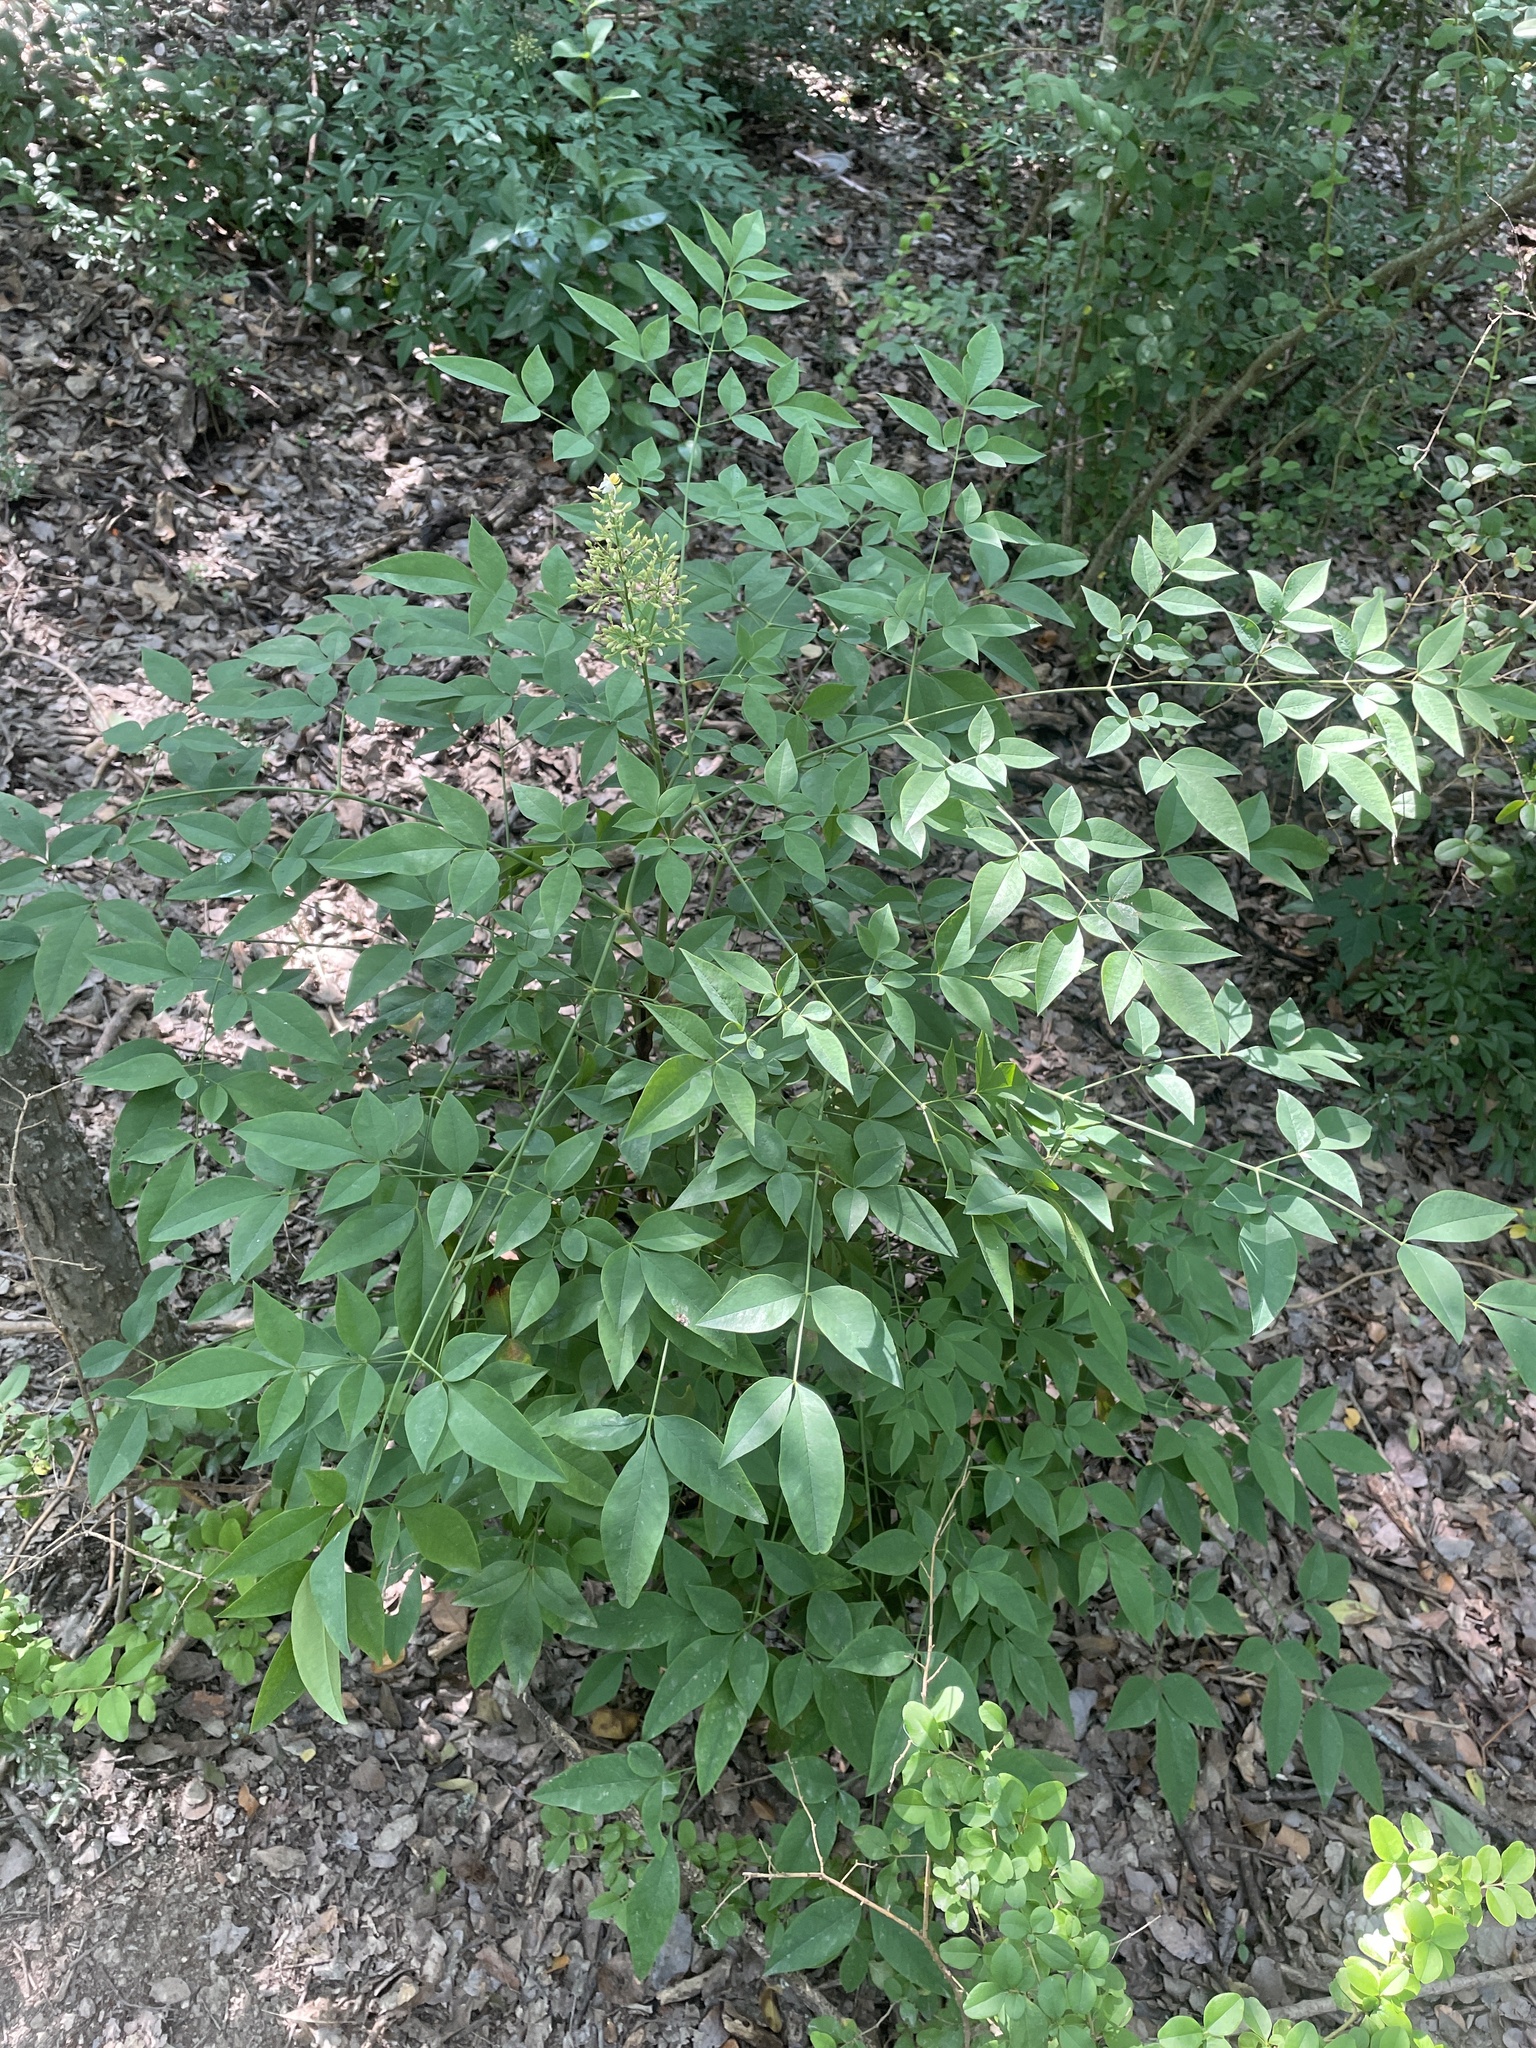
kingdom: Plantae
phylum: Tracheophyta
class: Magnoliopsida
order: Ranunculales
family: Berberidaceae
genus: Nandina
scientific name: Nandina domestica
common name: Sacred bamboo
